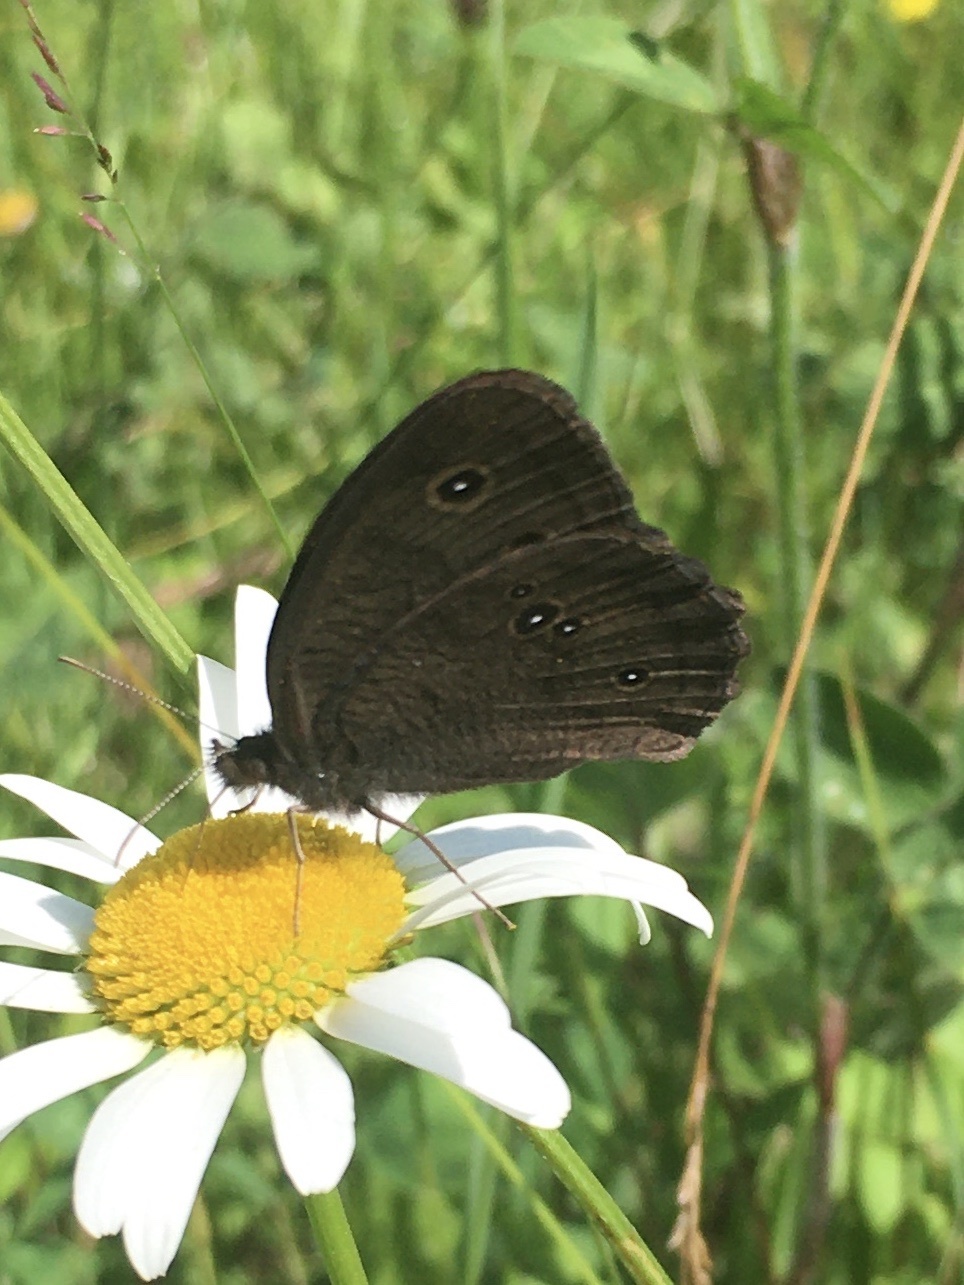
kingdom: Animalia
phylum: Arthropoda
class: Insecta
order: Lepidoptera
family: Nymphalidae
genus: Cercyonis
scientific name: Cercyonis pegala
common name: Common wood-nymph
